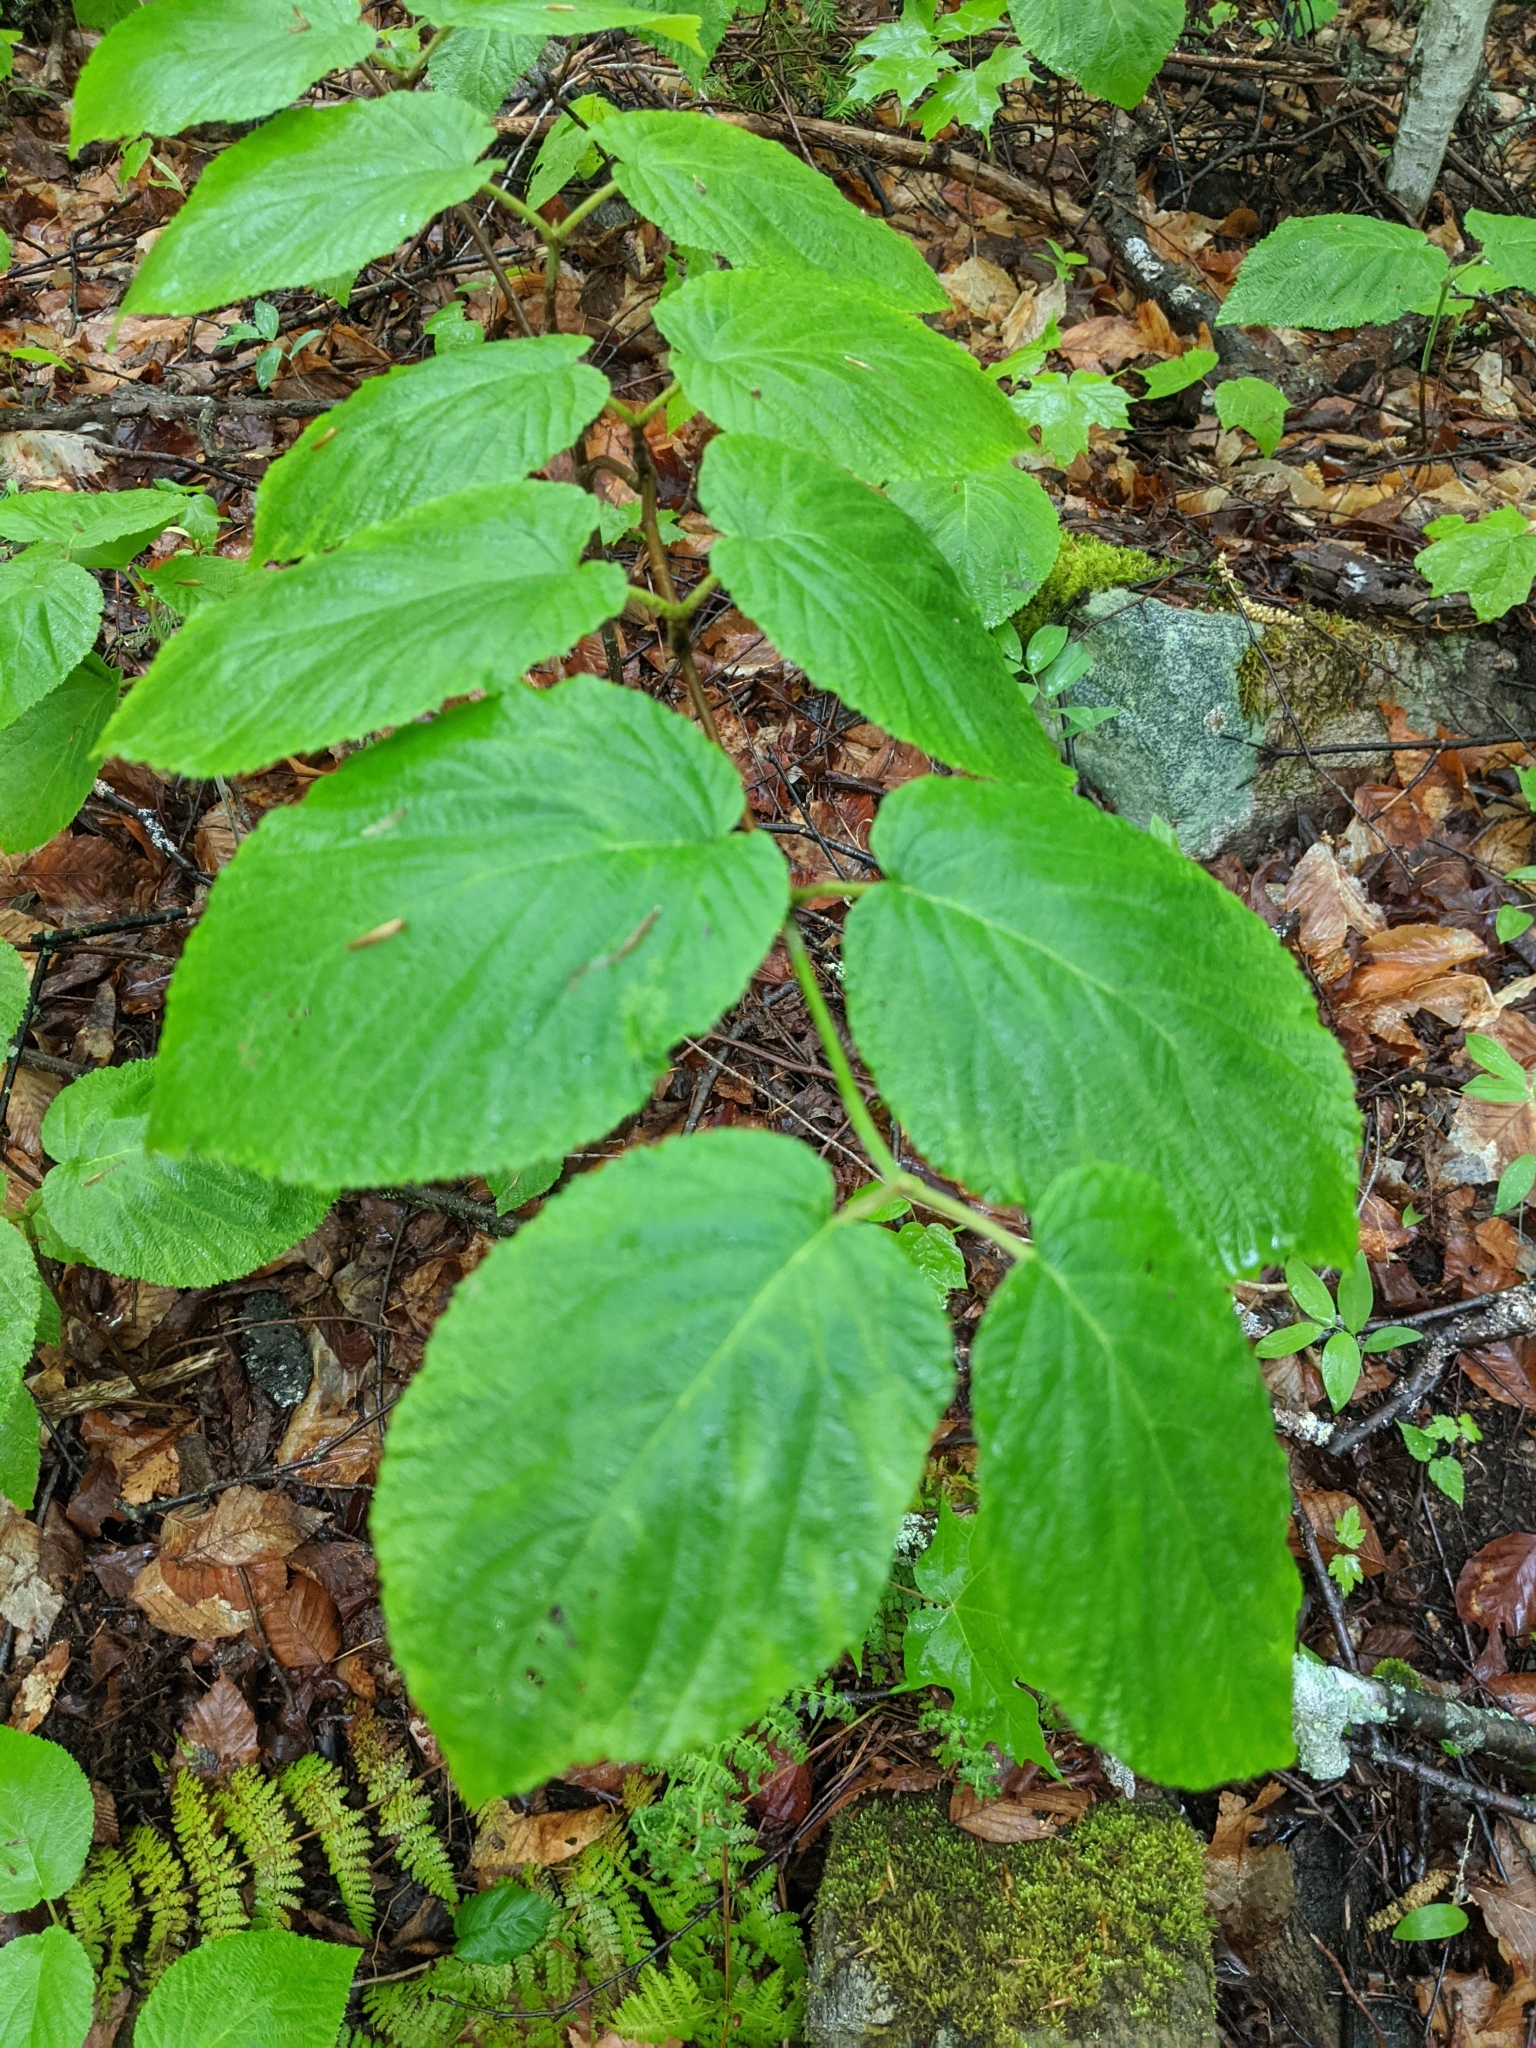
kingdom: Plantae
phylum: Tracheophyta
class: Magnoliopsida
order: Dipsacales
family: Viburnaceae
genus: Viburnum
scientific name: Viburnum lantanoides
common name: Hobblebush
